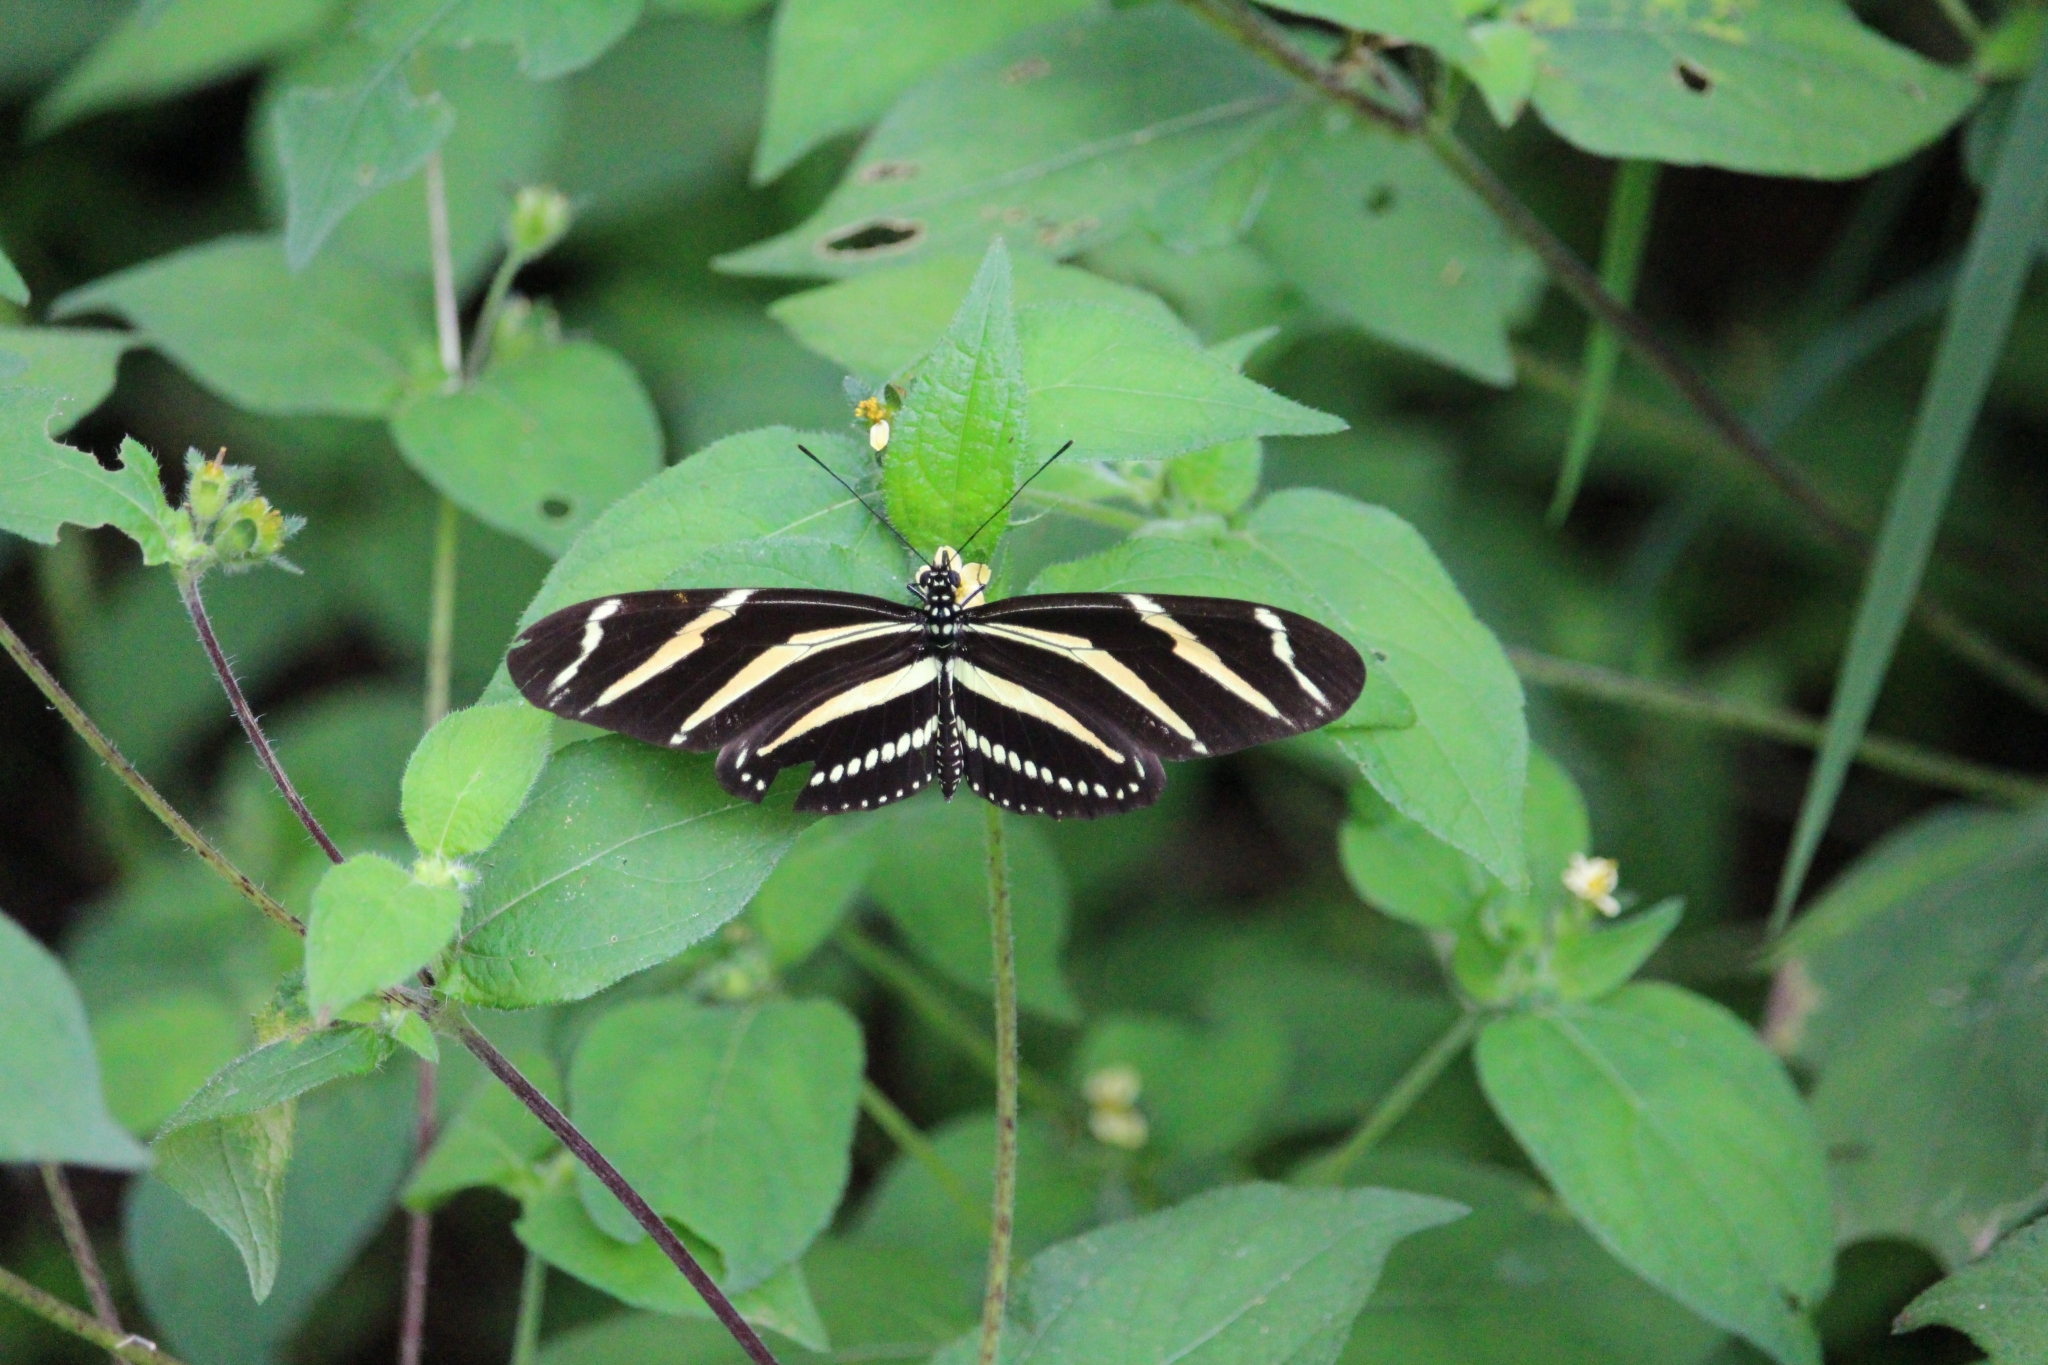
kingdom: Animalia
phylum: Arthropoda
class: Insecta
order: Lepidoptera
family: Nymphalidae
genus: Heliconius
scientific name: Heliconius charithonia
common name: Zebra long wing
